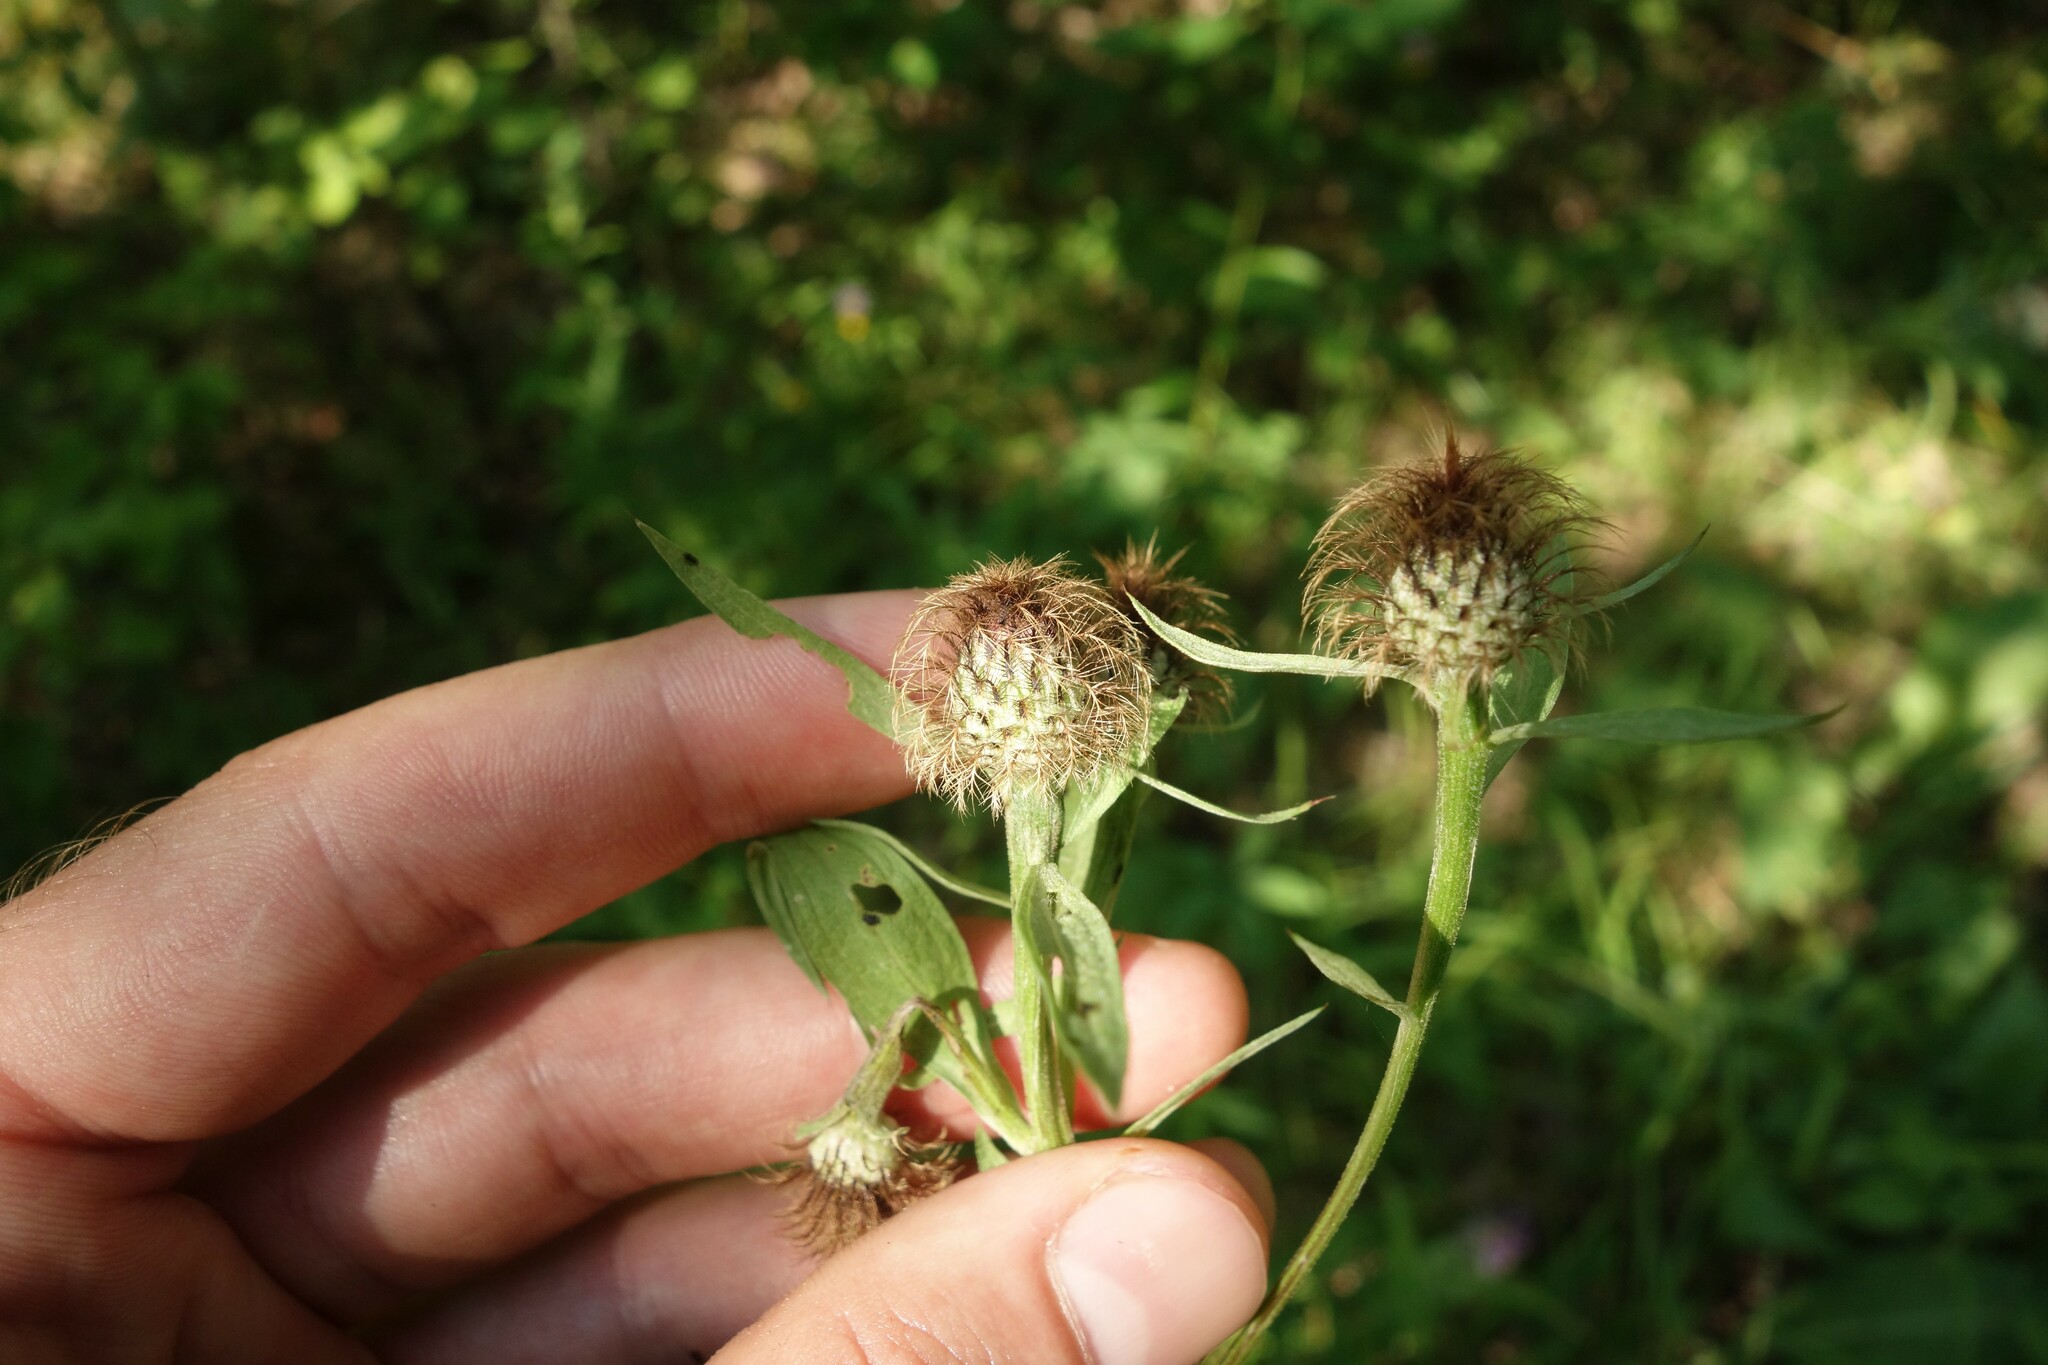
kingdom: Plantae
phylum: Tracheophyta
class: Magnoliopsida
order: Asterales
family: Asteraceae
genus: Centaurea
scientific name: Centaurea pseudophrygia
